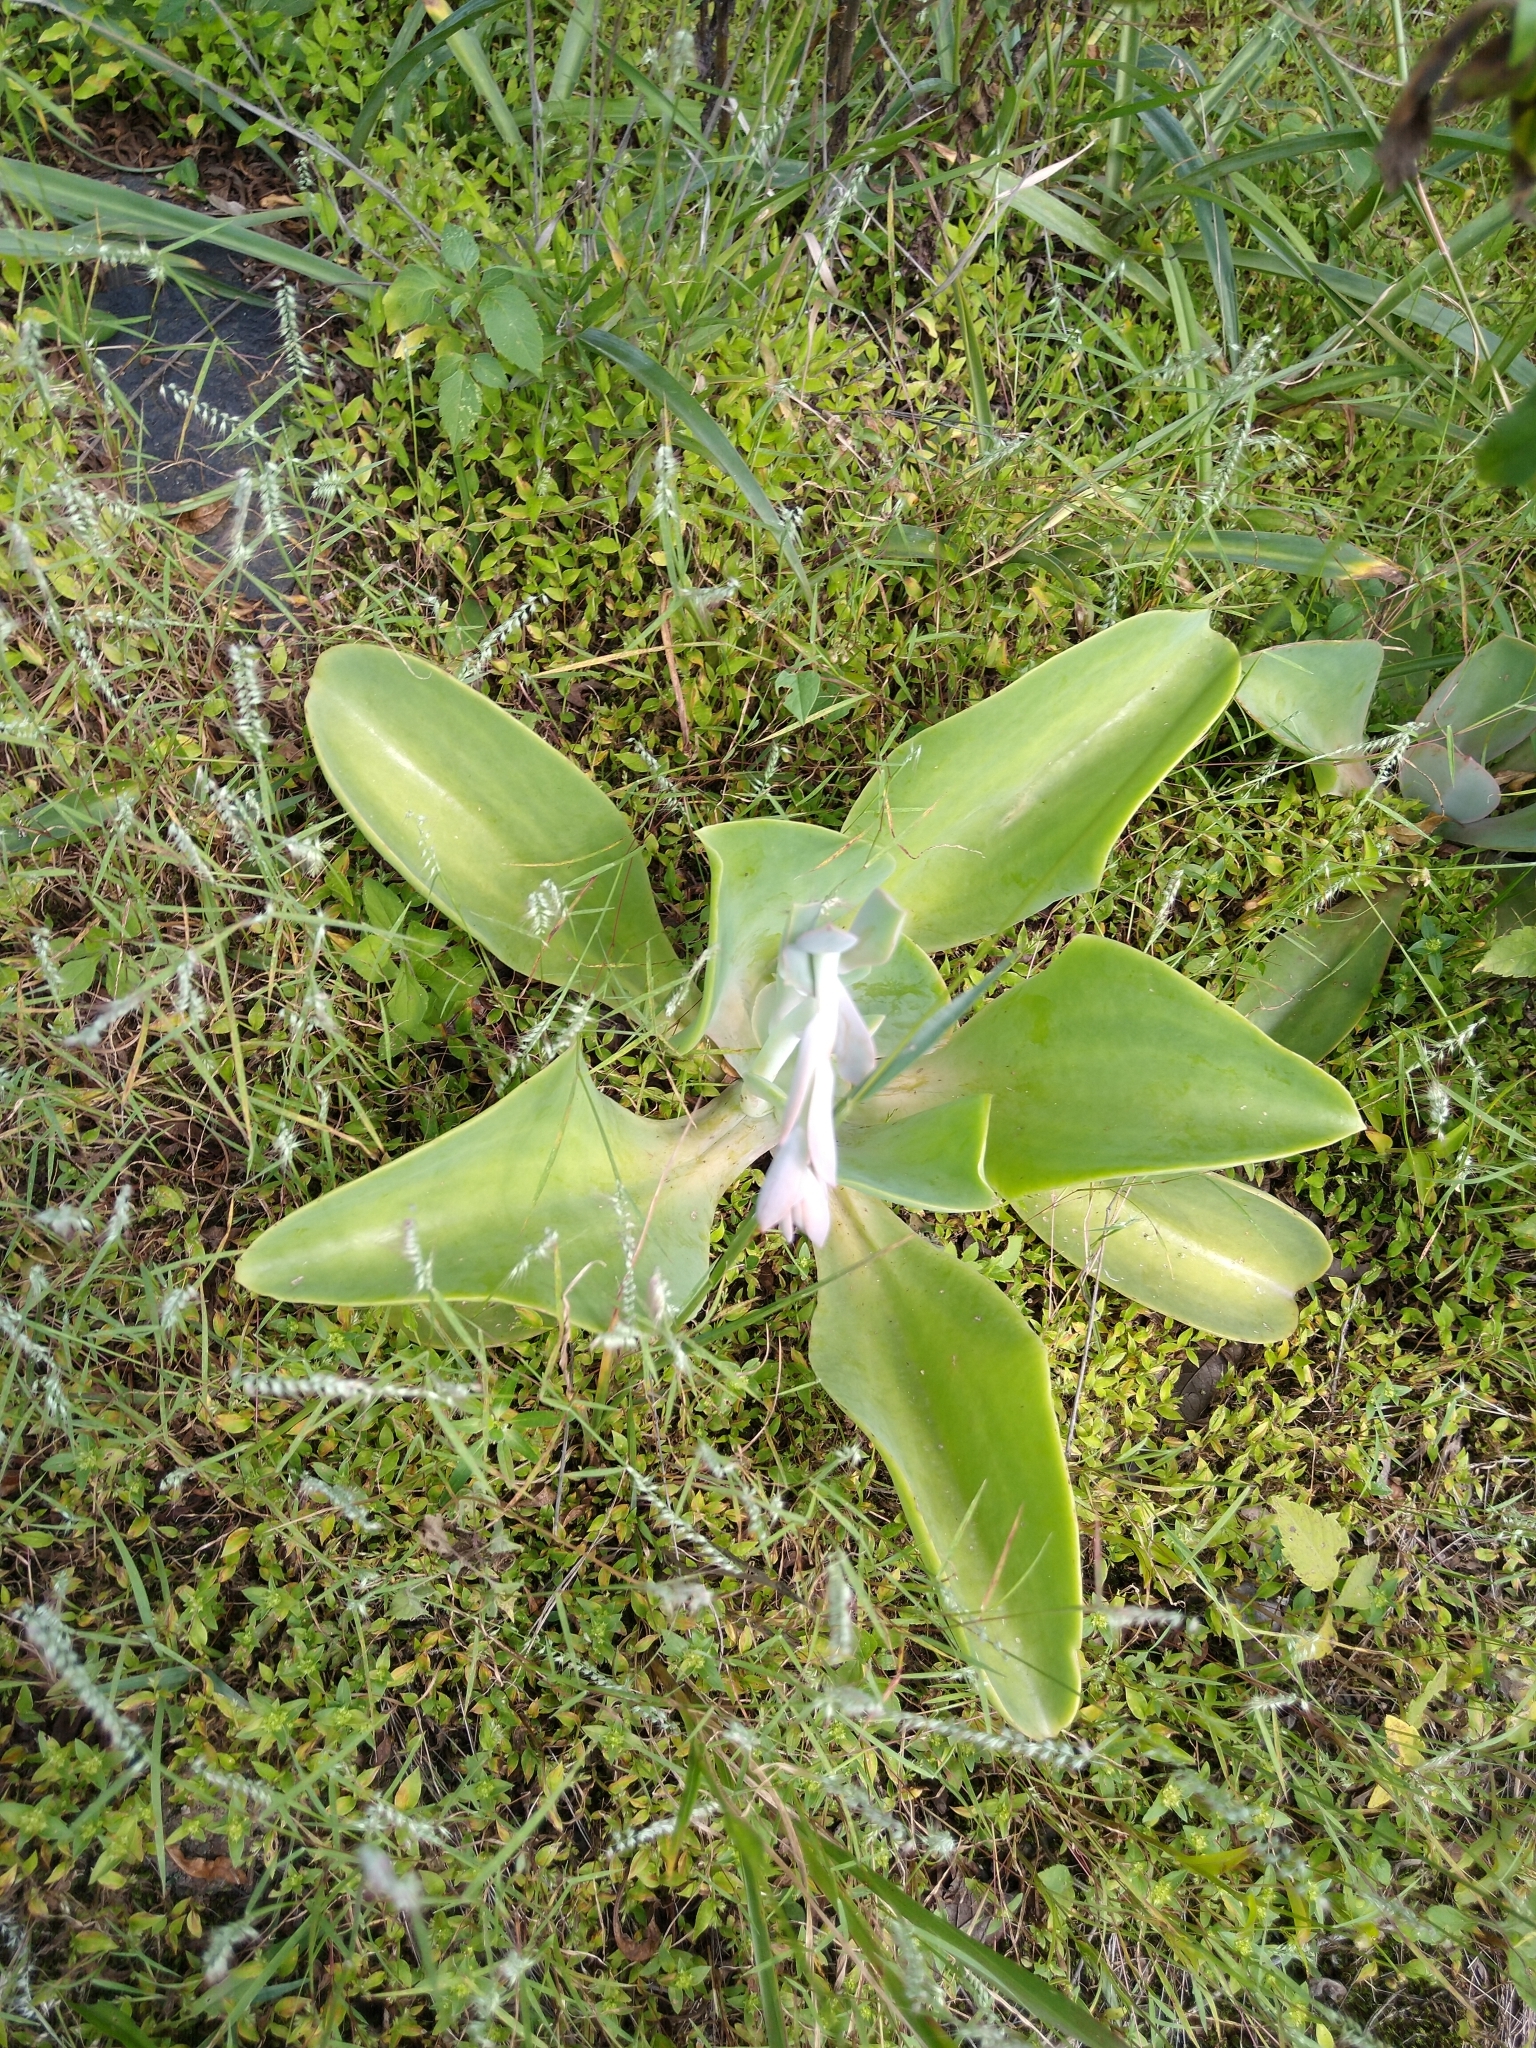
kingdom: Plantae
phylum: Tracheophyta
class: Magnoliopsida
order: Saxifragales
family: Crassulaceae
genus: Echeveria
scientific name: Echeveria gibbiflora
